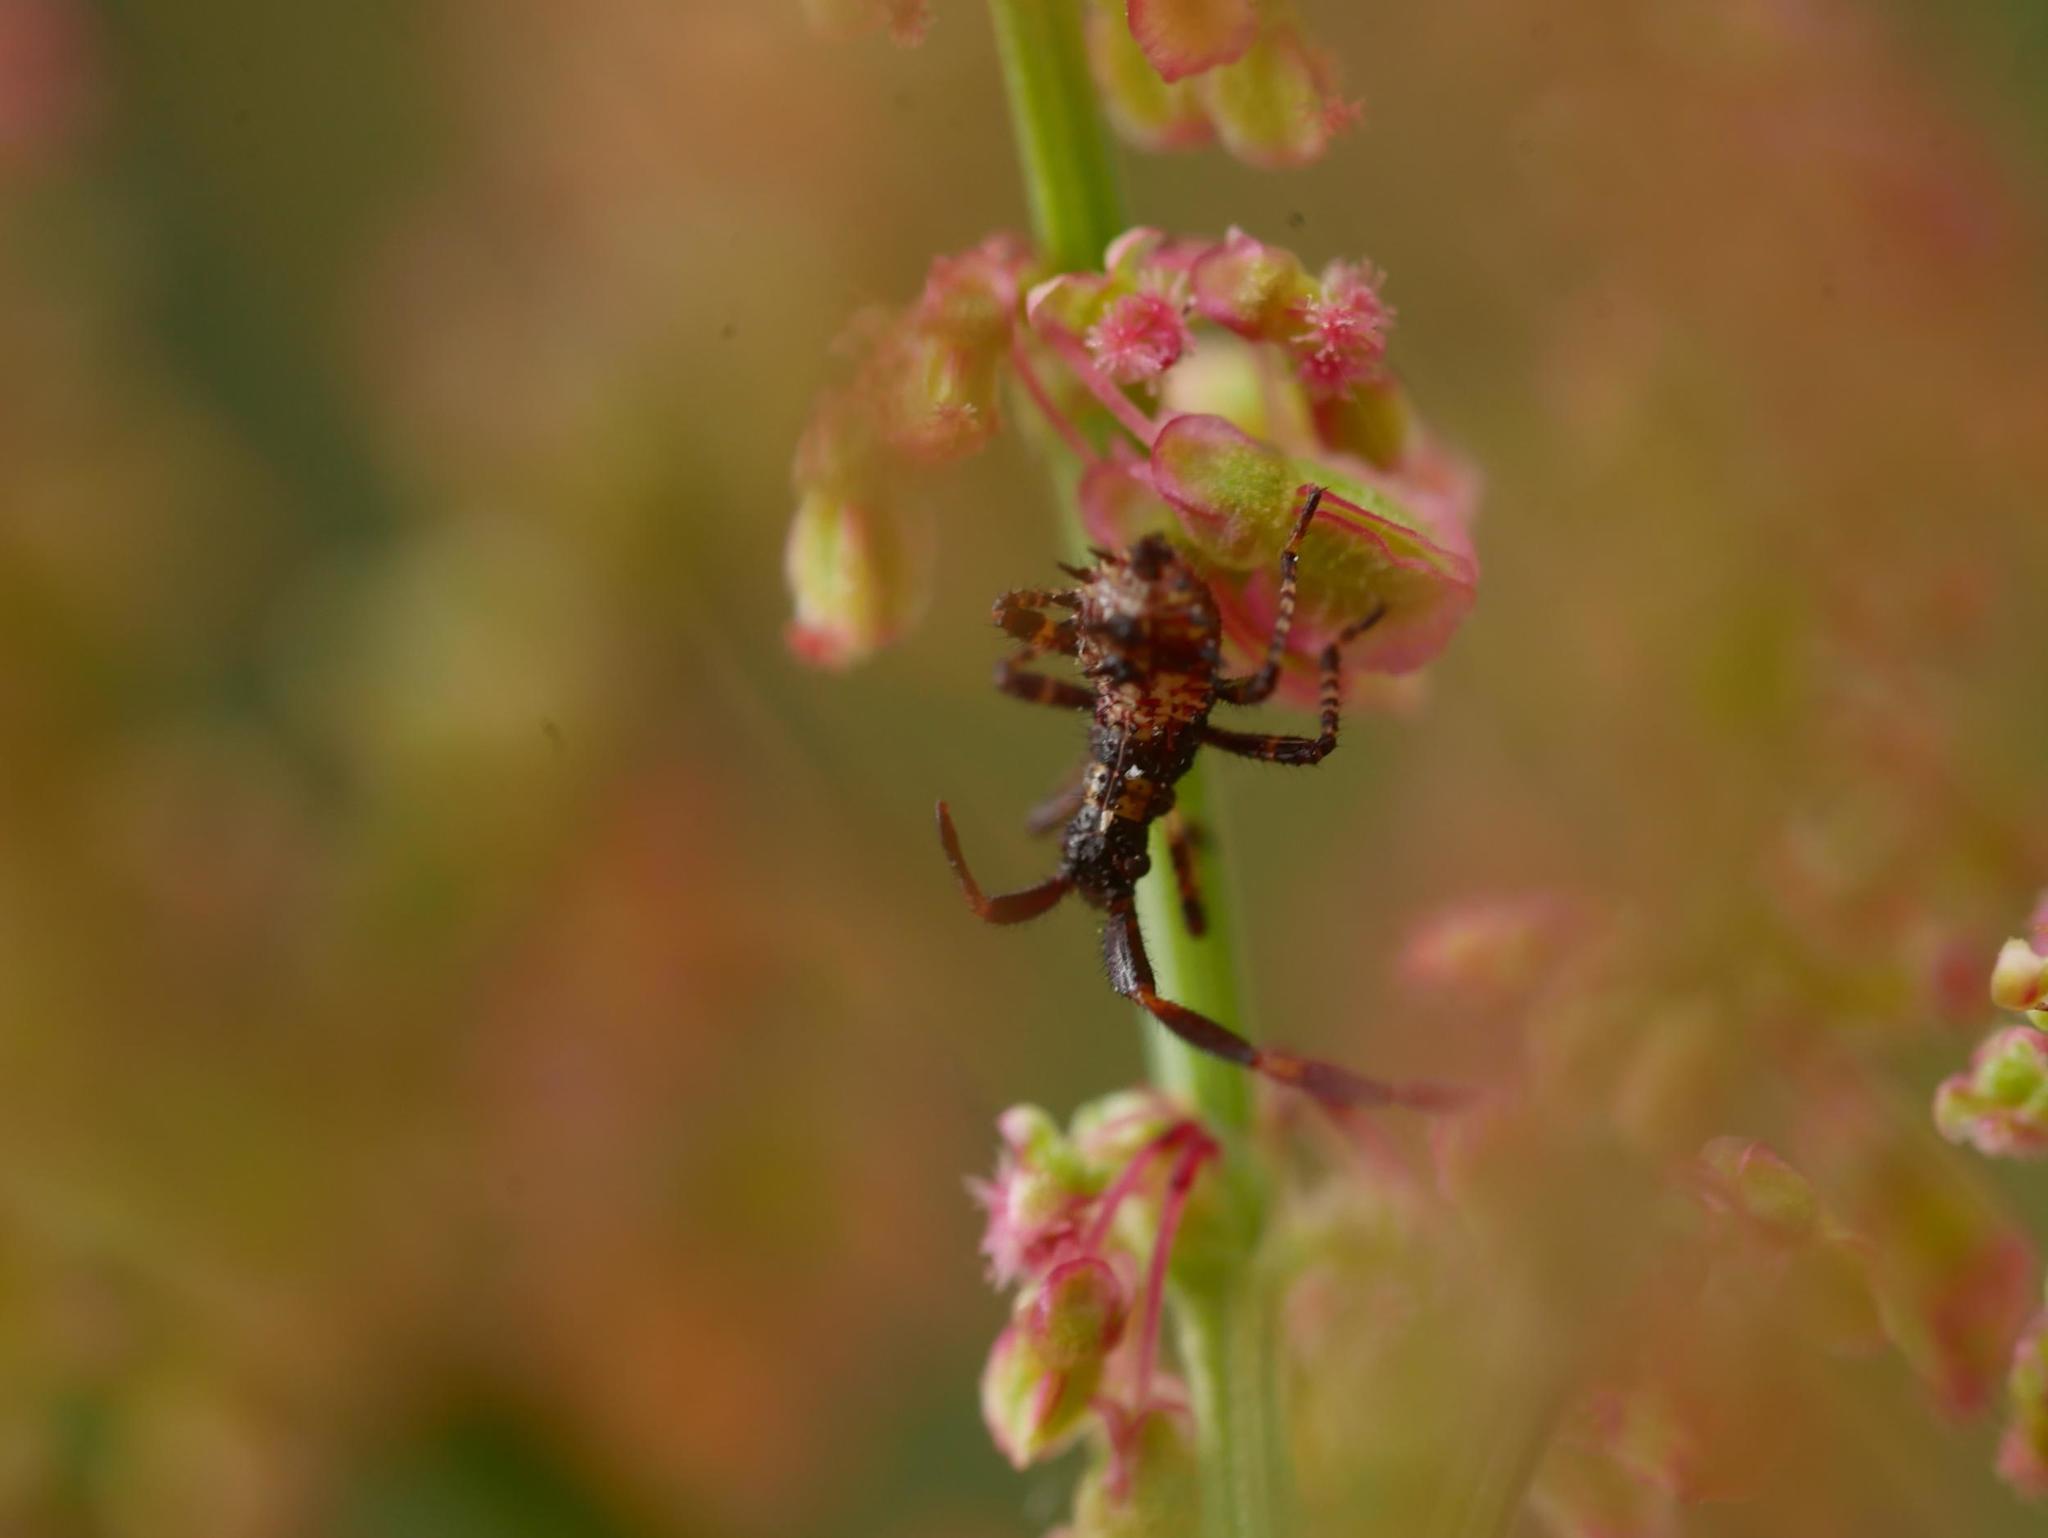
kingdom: Animalia
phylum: Arthropoda
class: Insecta
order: Hemiptera
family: Coreidae
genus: Coreus
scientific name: Coreus marginatus
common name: Dock bug
